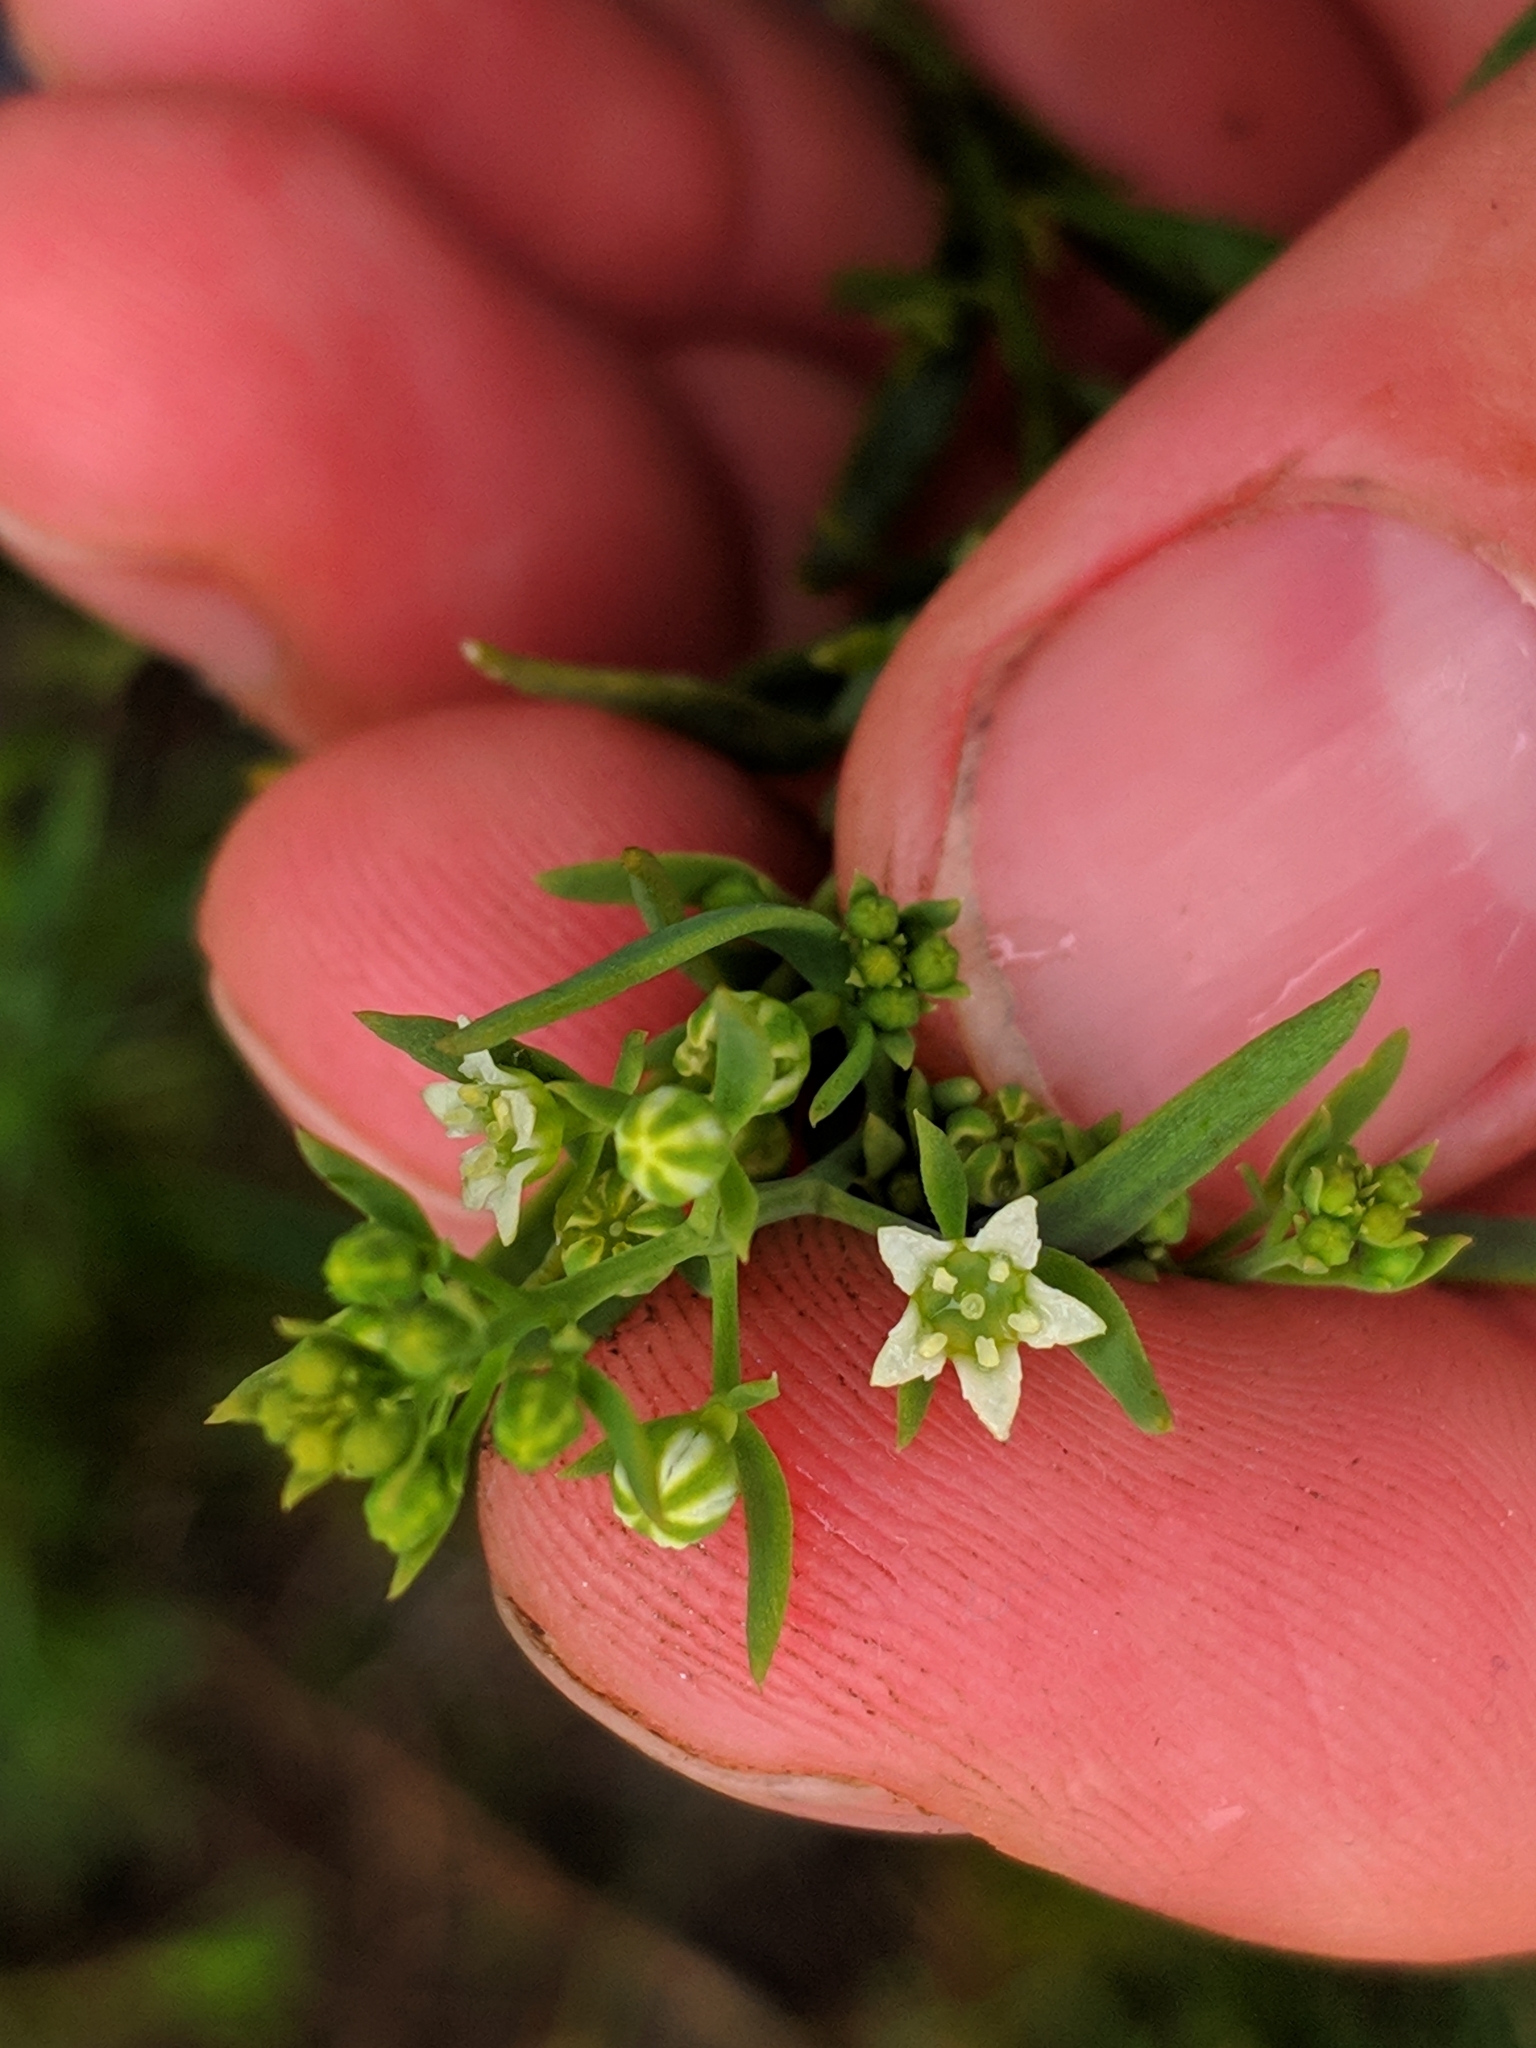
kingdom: Plantae
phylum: Tracheophyta
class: Magnoliopsida
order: Santalales
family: Thesiaceae
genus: Thesium
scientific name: Thesium linophyllon
